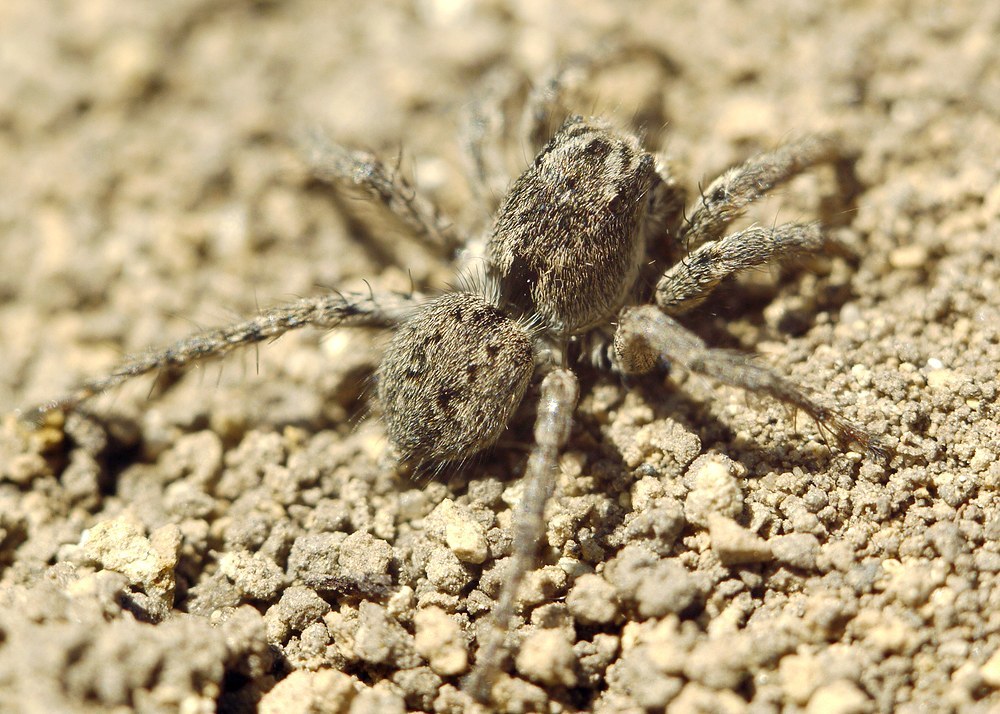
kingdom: Animalia
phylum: Arthropoda
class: Arachnida
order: Araneae
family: Salticidae
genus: Aelurillus
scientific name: Aelurillus v-insignitus
